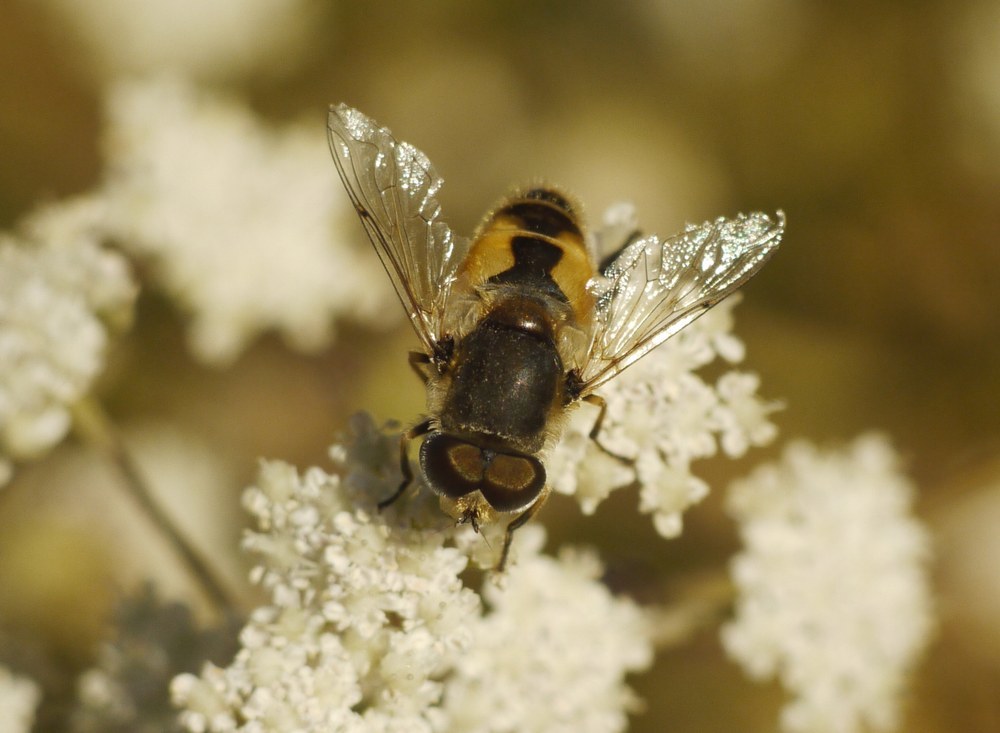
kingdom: Animalia
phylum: Arthropoda
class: Insecta
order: Diptera
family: Syrphidae
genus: Eristalis
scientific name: Eristalis arbustorum
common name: Hover fly
